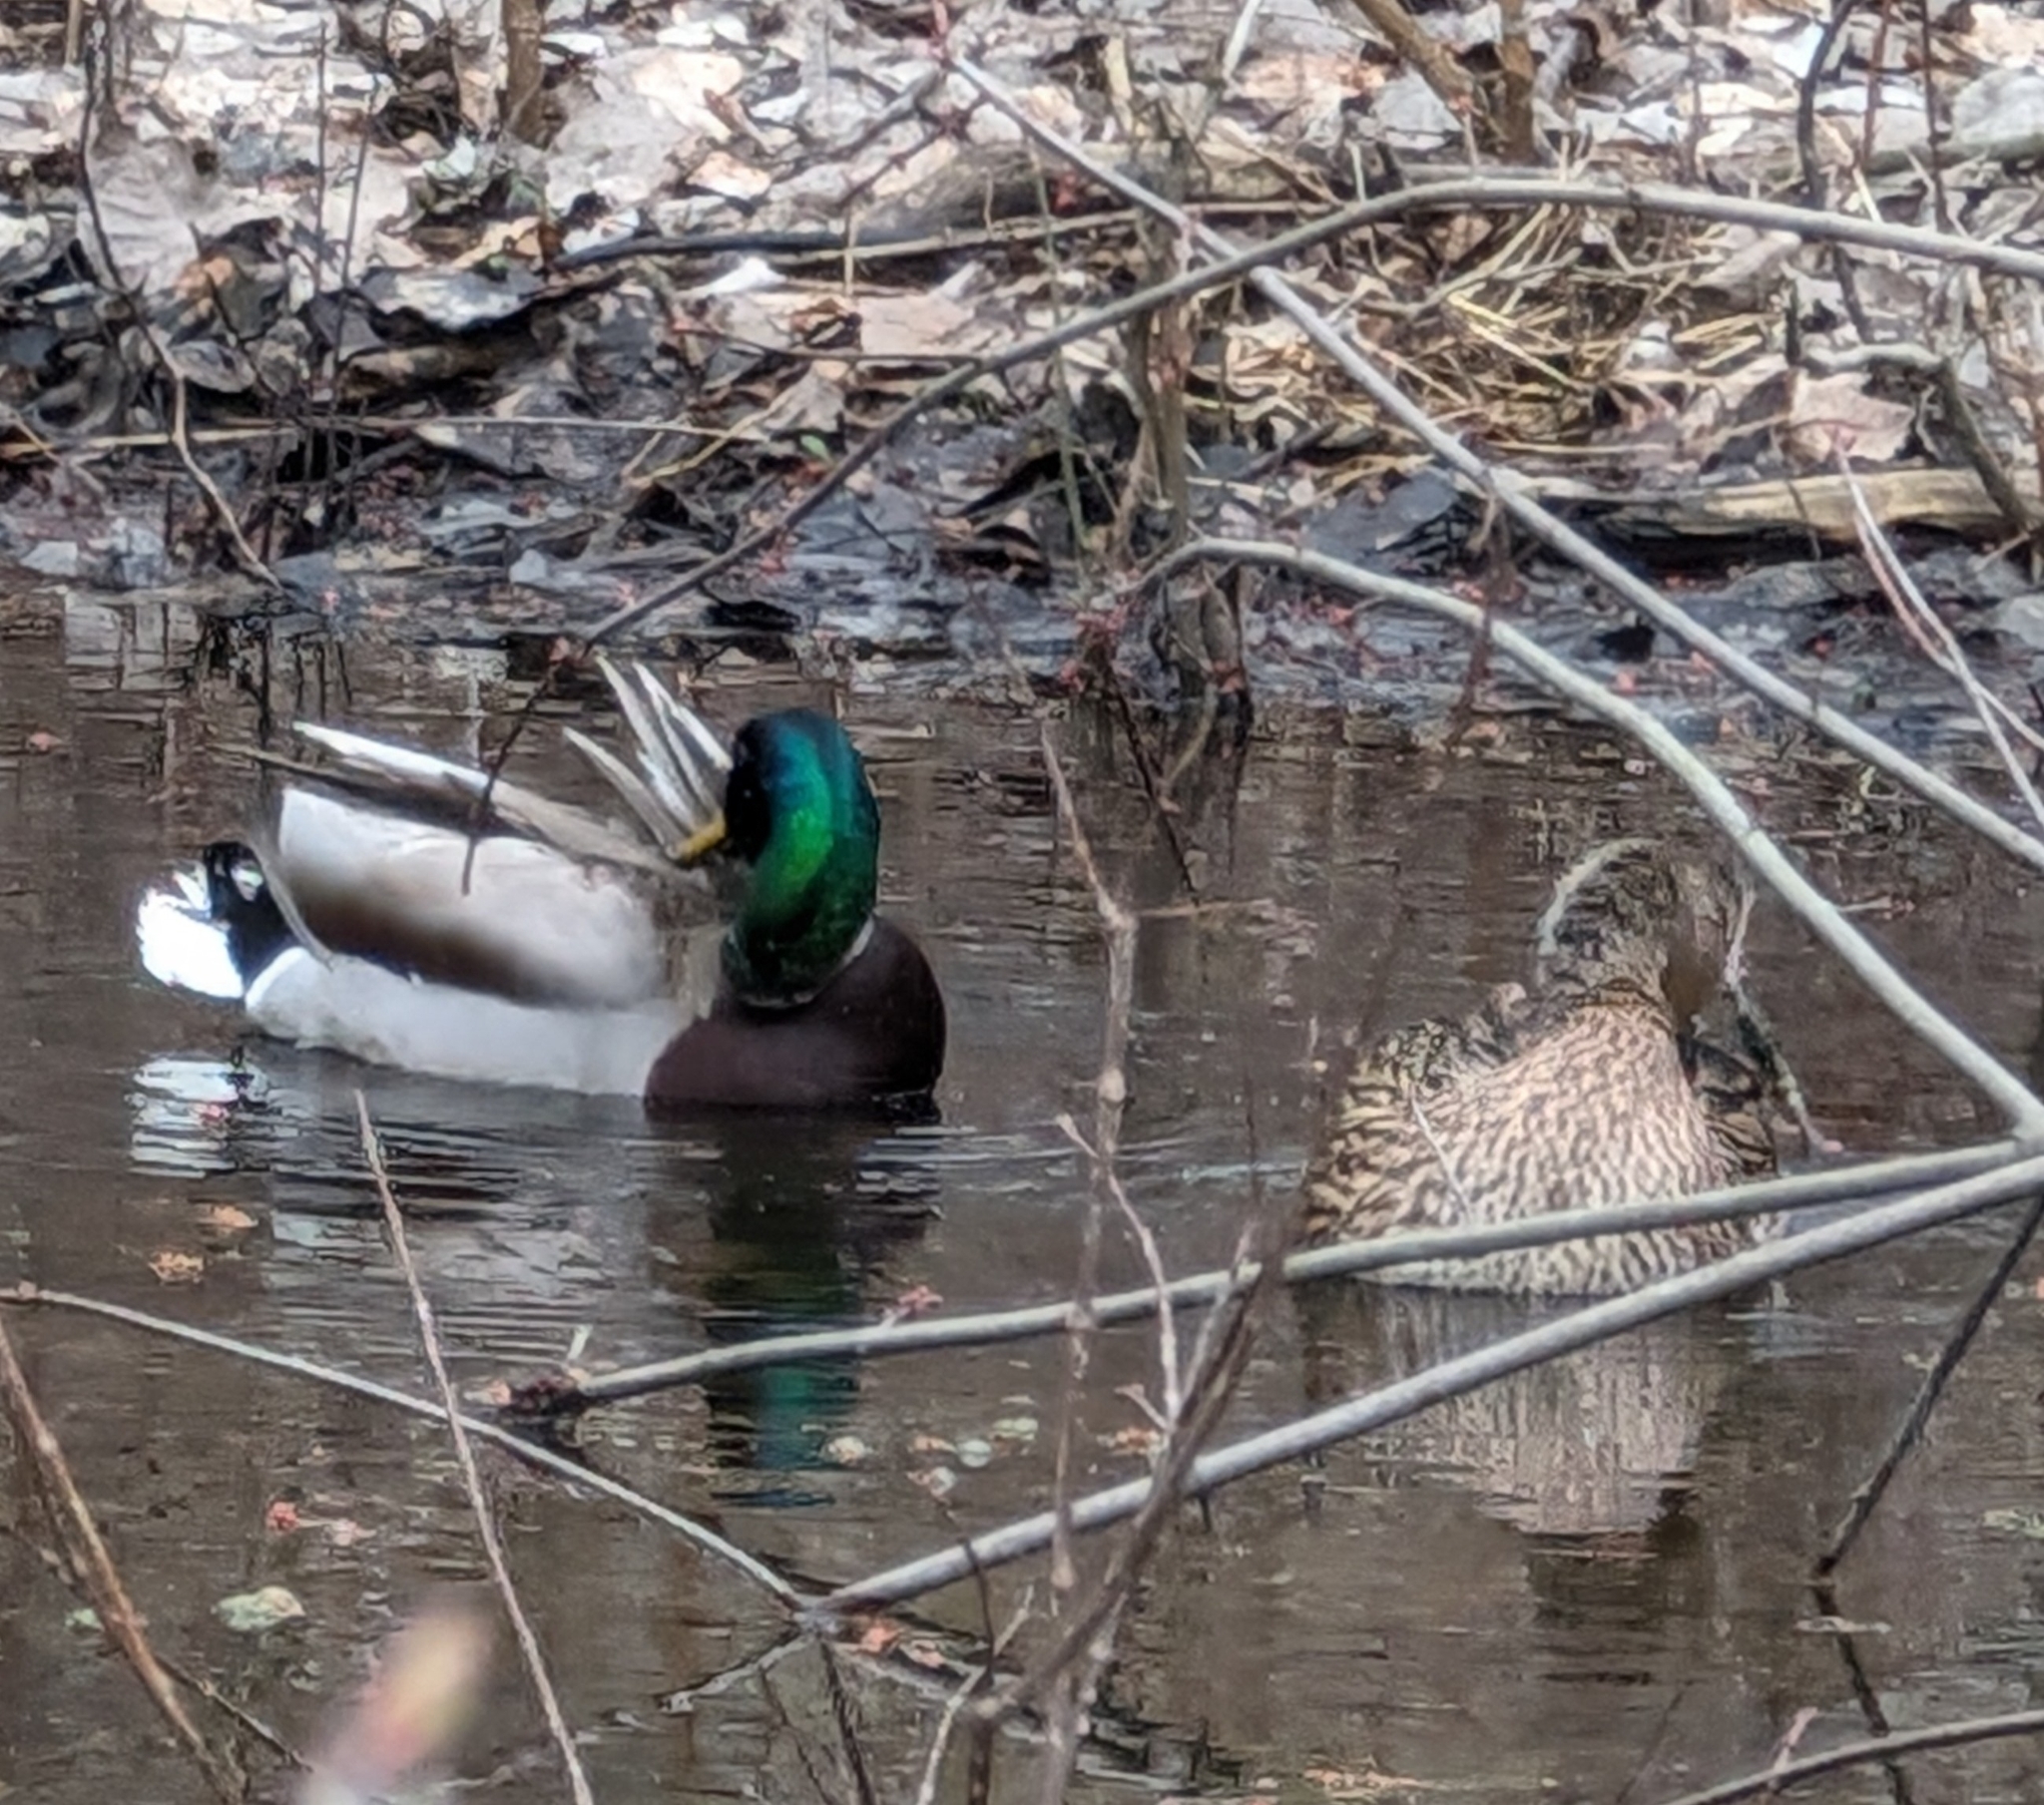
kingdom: Animalia
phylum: Chordata
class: Aves
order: Anseriformes
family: Anatidae
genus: Anas
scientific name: Anas platyrhynchos
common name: Mallard
